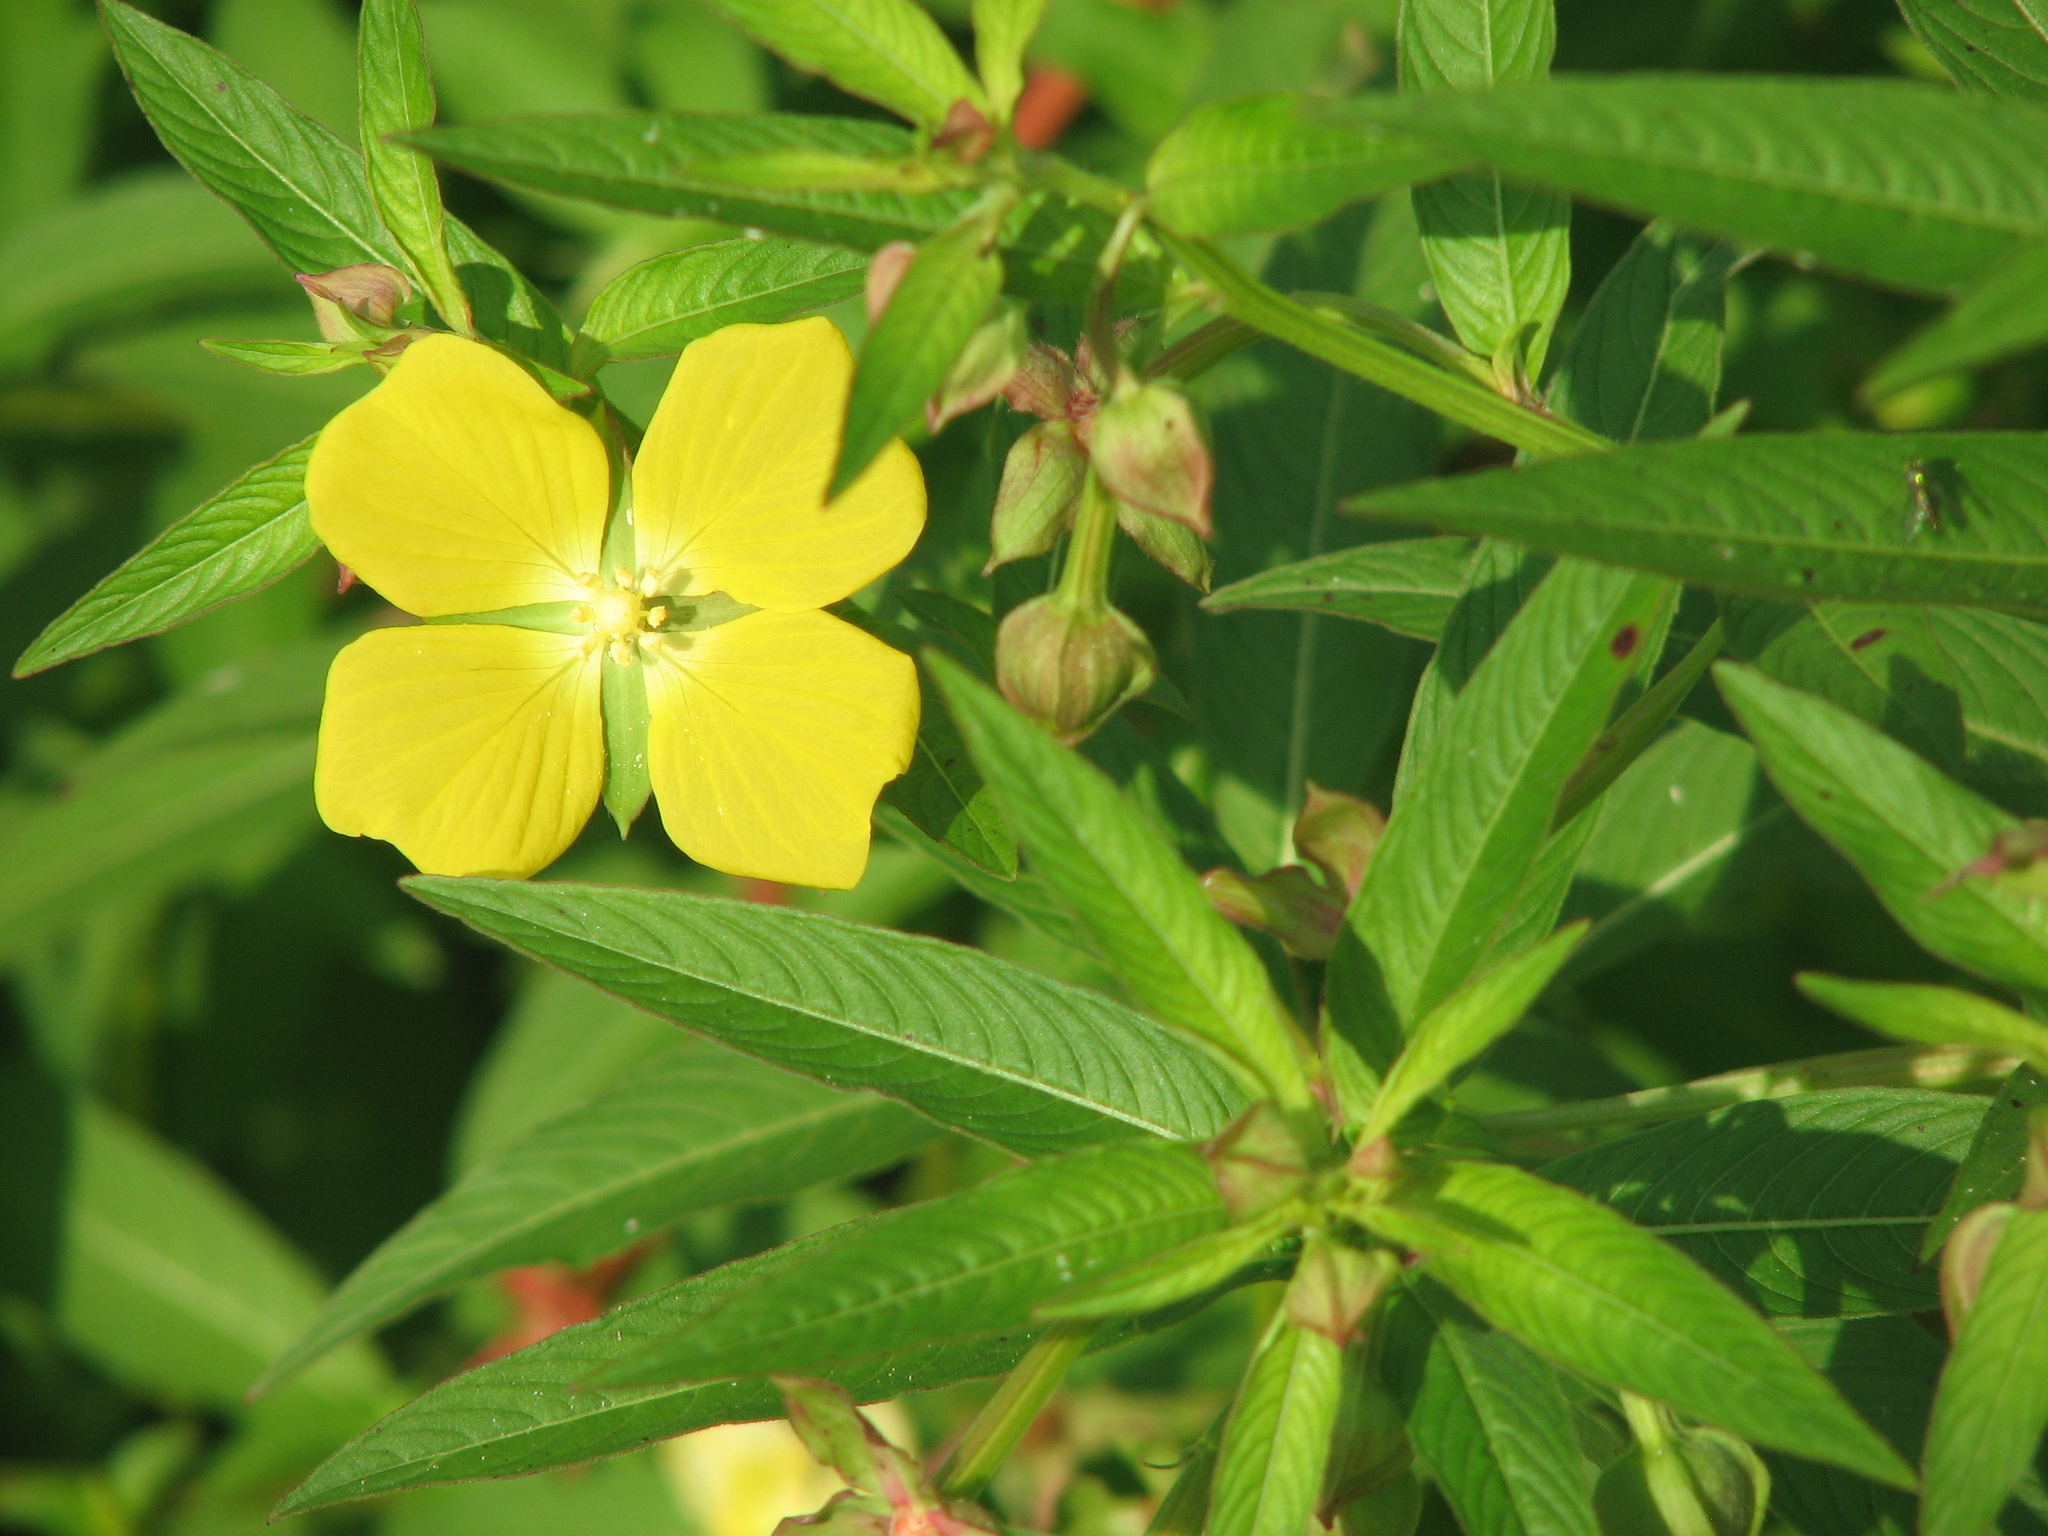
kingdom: Plantae
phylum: Tracheophyta
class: Magnoliopsida
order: Myrtales
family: Onagraceae
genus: Ludwigia
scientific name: Ludwigia octovalvis
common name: Water-primrose
